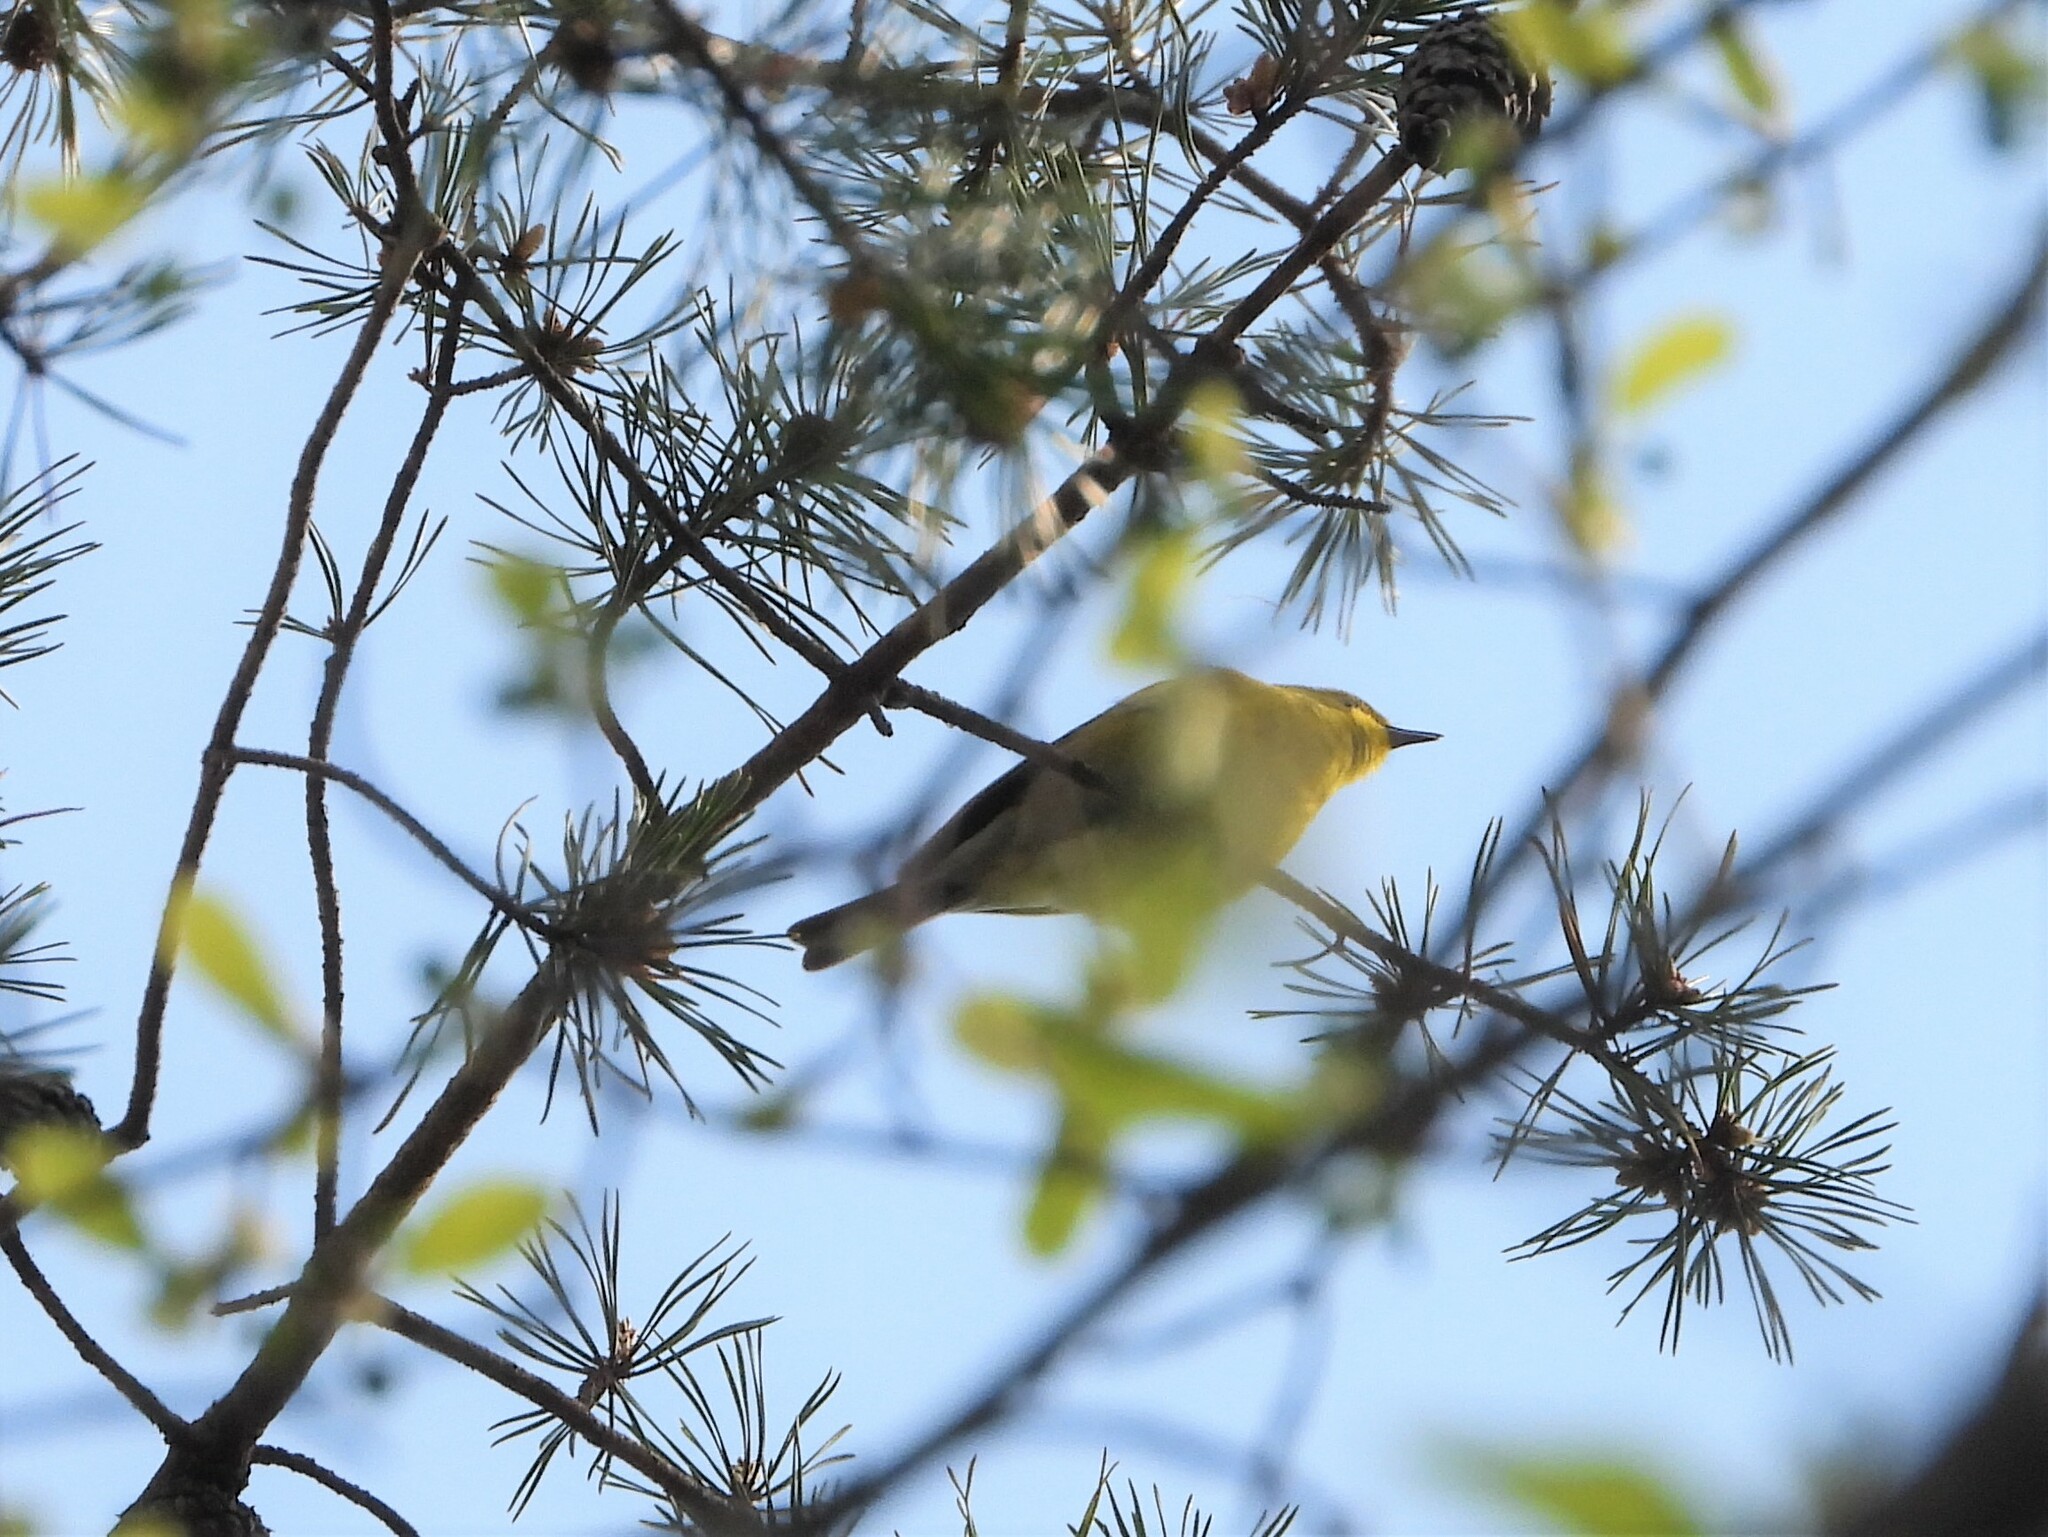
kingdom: Animalia
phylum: Chordata
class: Aves
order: Passeriformes
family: Parulidae
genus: Setophaga
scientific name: Setophaga pinus
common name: Pine warbler
